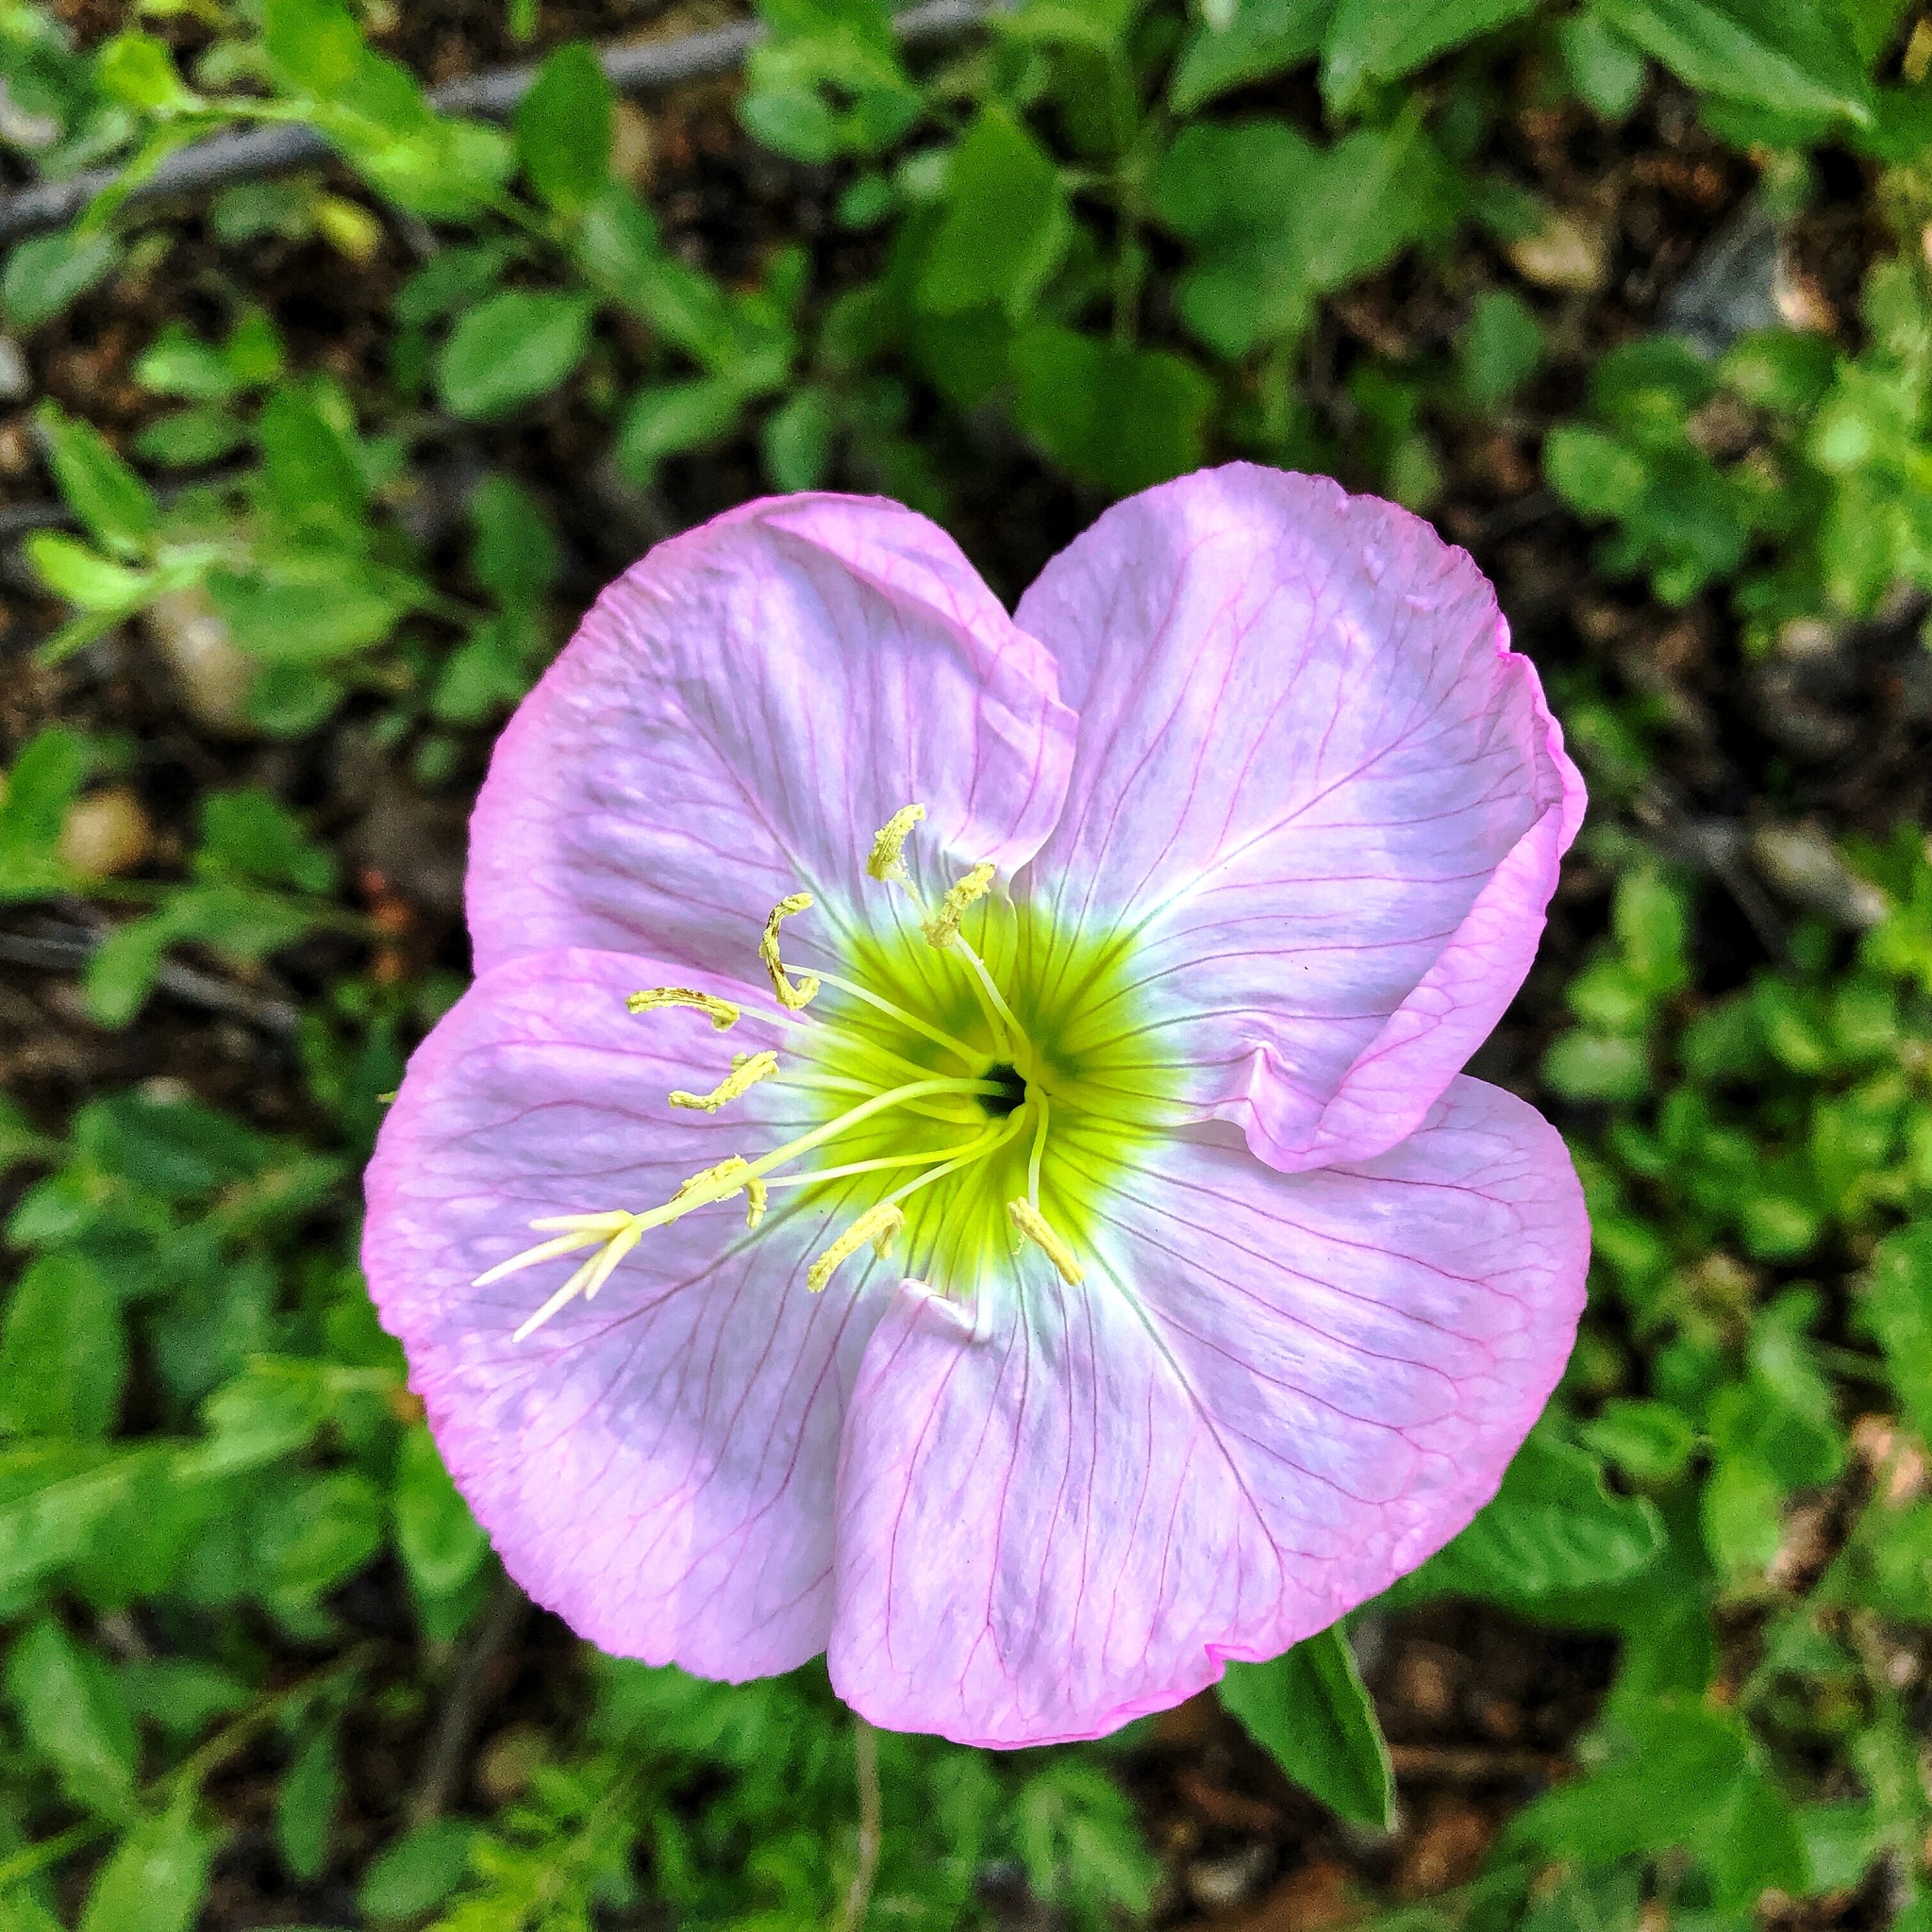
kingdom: Plantae
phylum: Tracheophyta
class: Magnoliopsida
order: Myrtales
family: Onagraceae
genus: Oenothera
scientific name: Oenothera speciosa
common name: White evening-primrose
